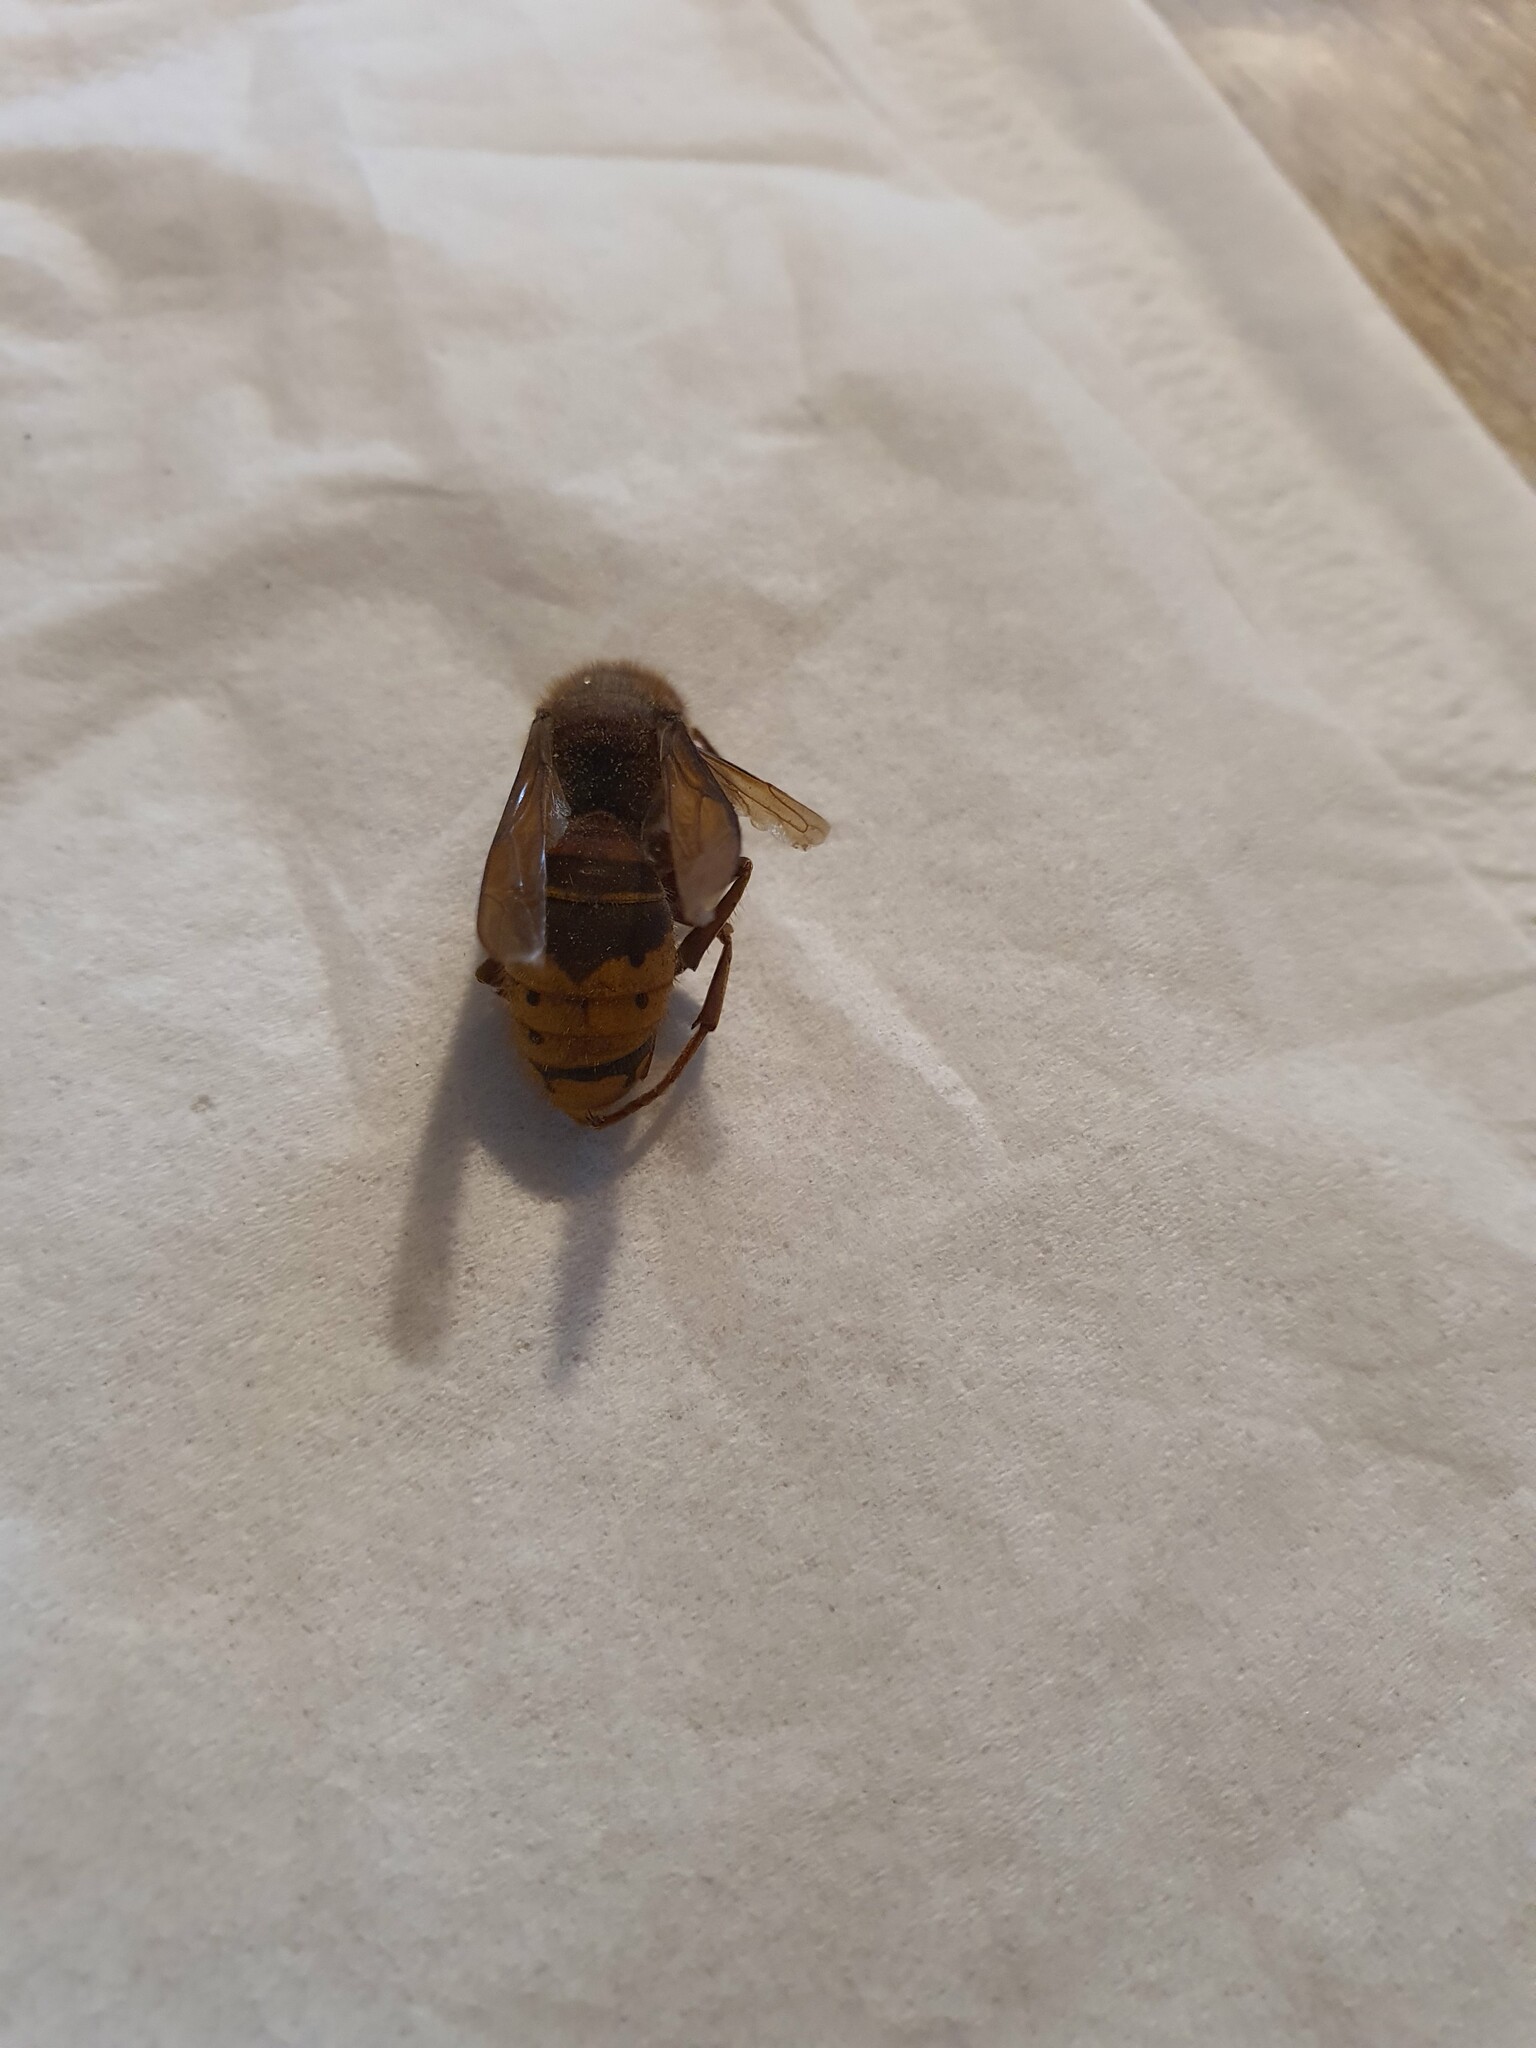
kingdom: Animalia
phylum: Arthropoda
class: Insecta
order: Hymenoptera
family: Vespidae
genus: Vespa
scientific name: Vespa crabro
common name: Hornet
